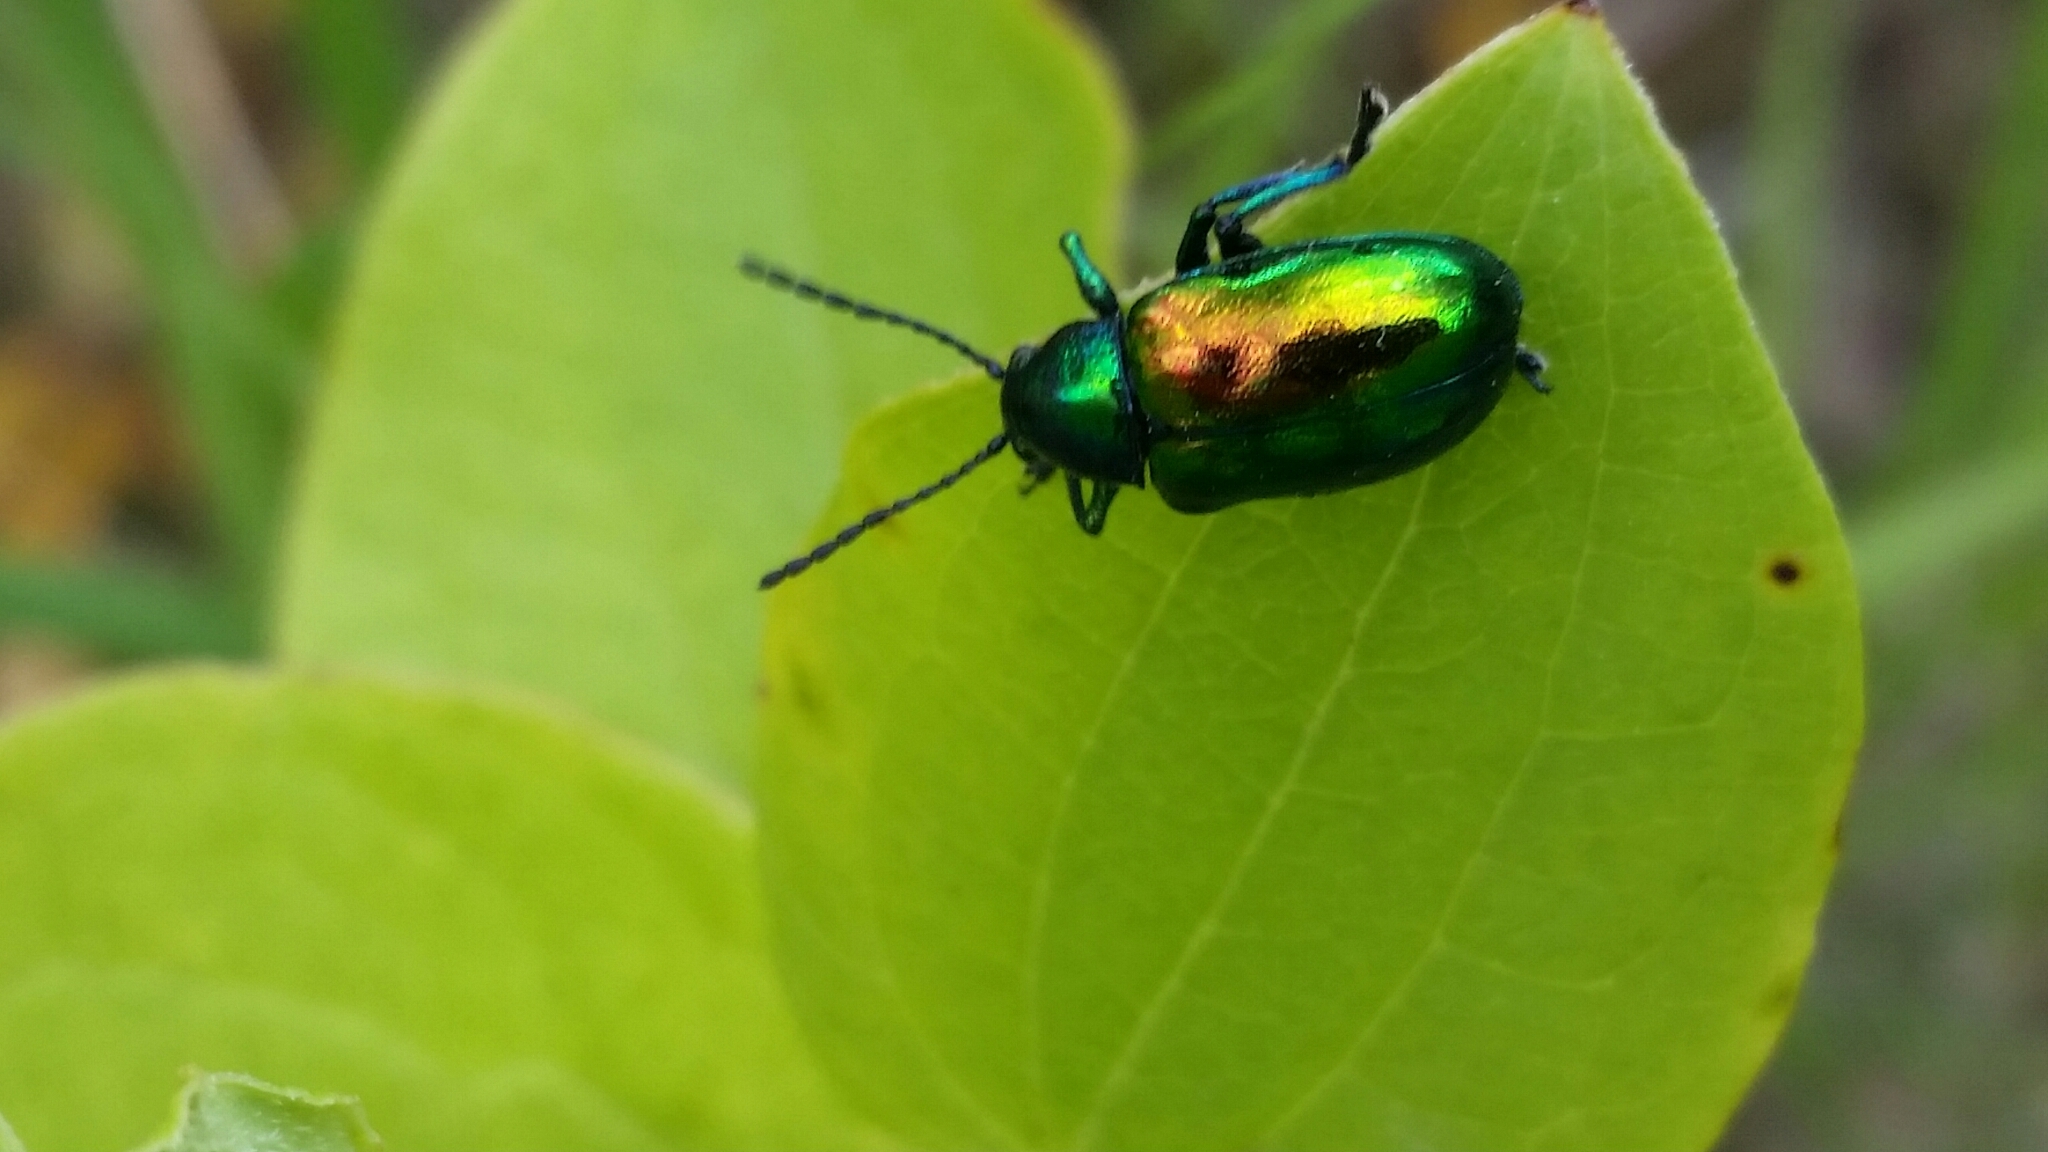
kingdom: Animalia
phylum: Arthropoda
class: Insecta
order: Coleoptera
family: Chrysomelidae
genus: Chrysochus
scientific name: Chrysochus auratus
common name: Dogbane leaf beetle
